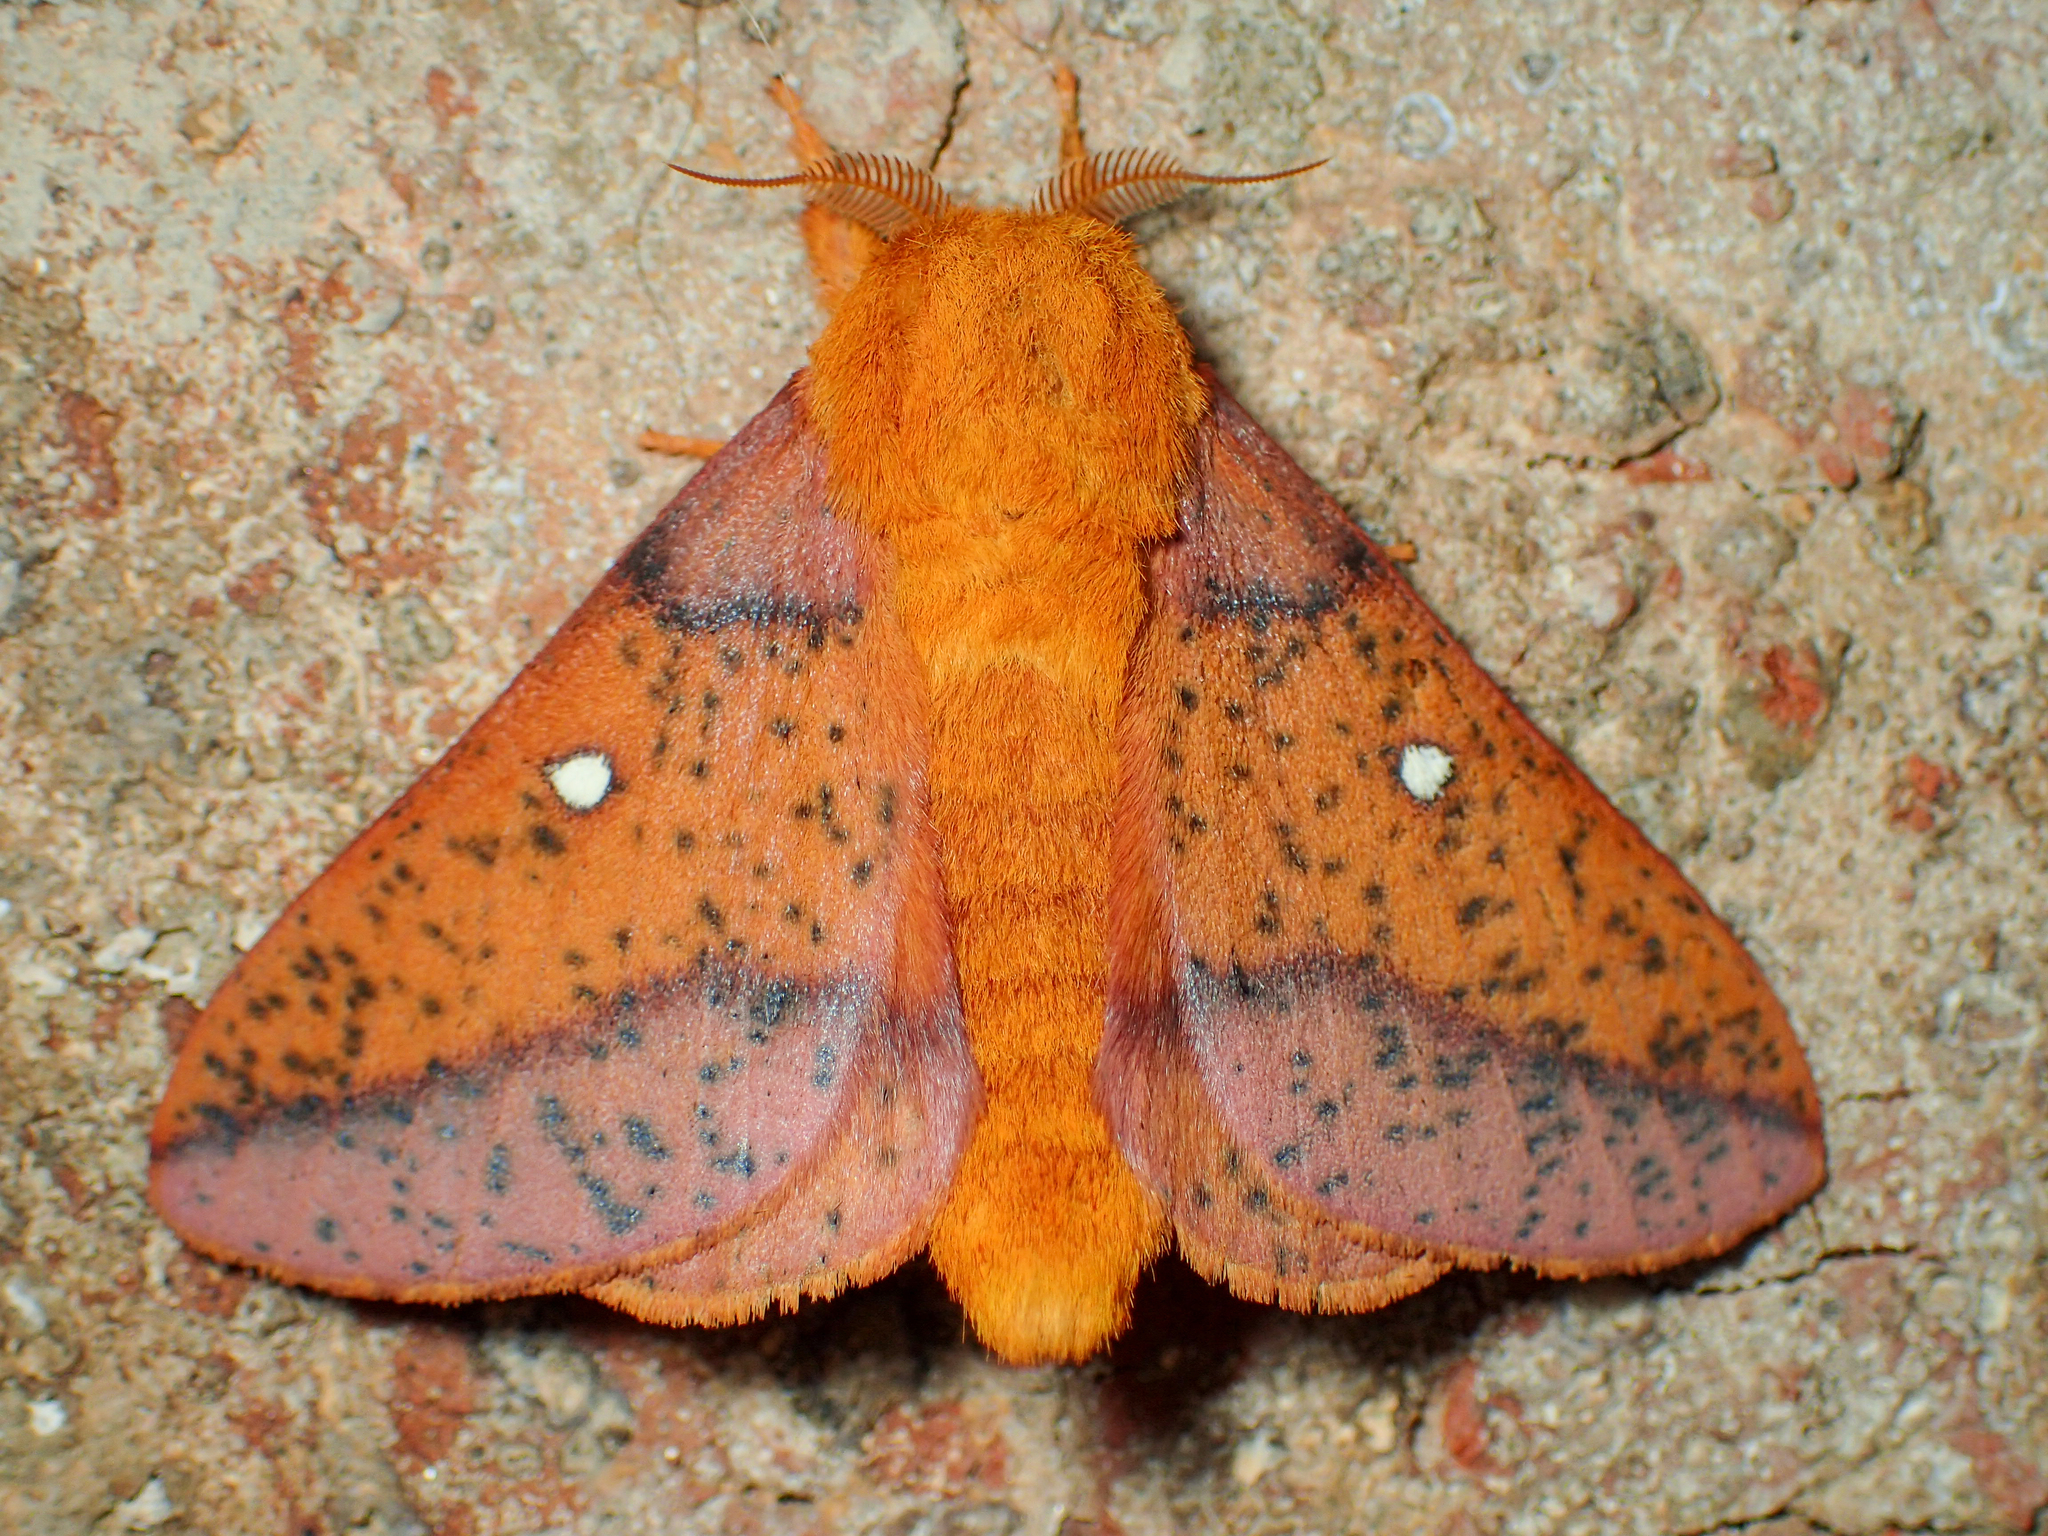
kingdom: Animalia
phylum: Arthropoda
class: Insecta
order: Lepidoptera
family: Saturniidae
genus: Anisota
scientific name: Anisota stigma
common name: Spiny oakworm moth
